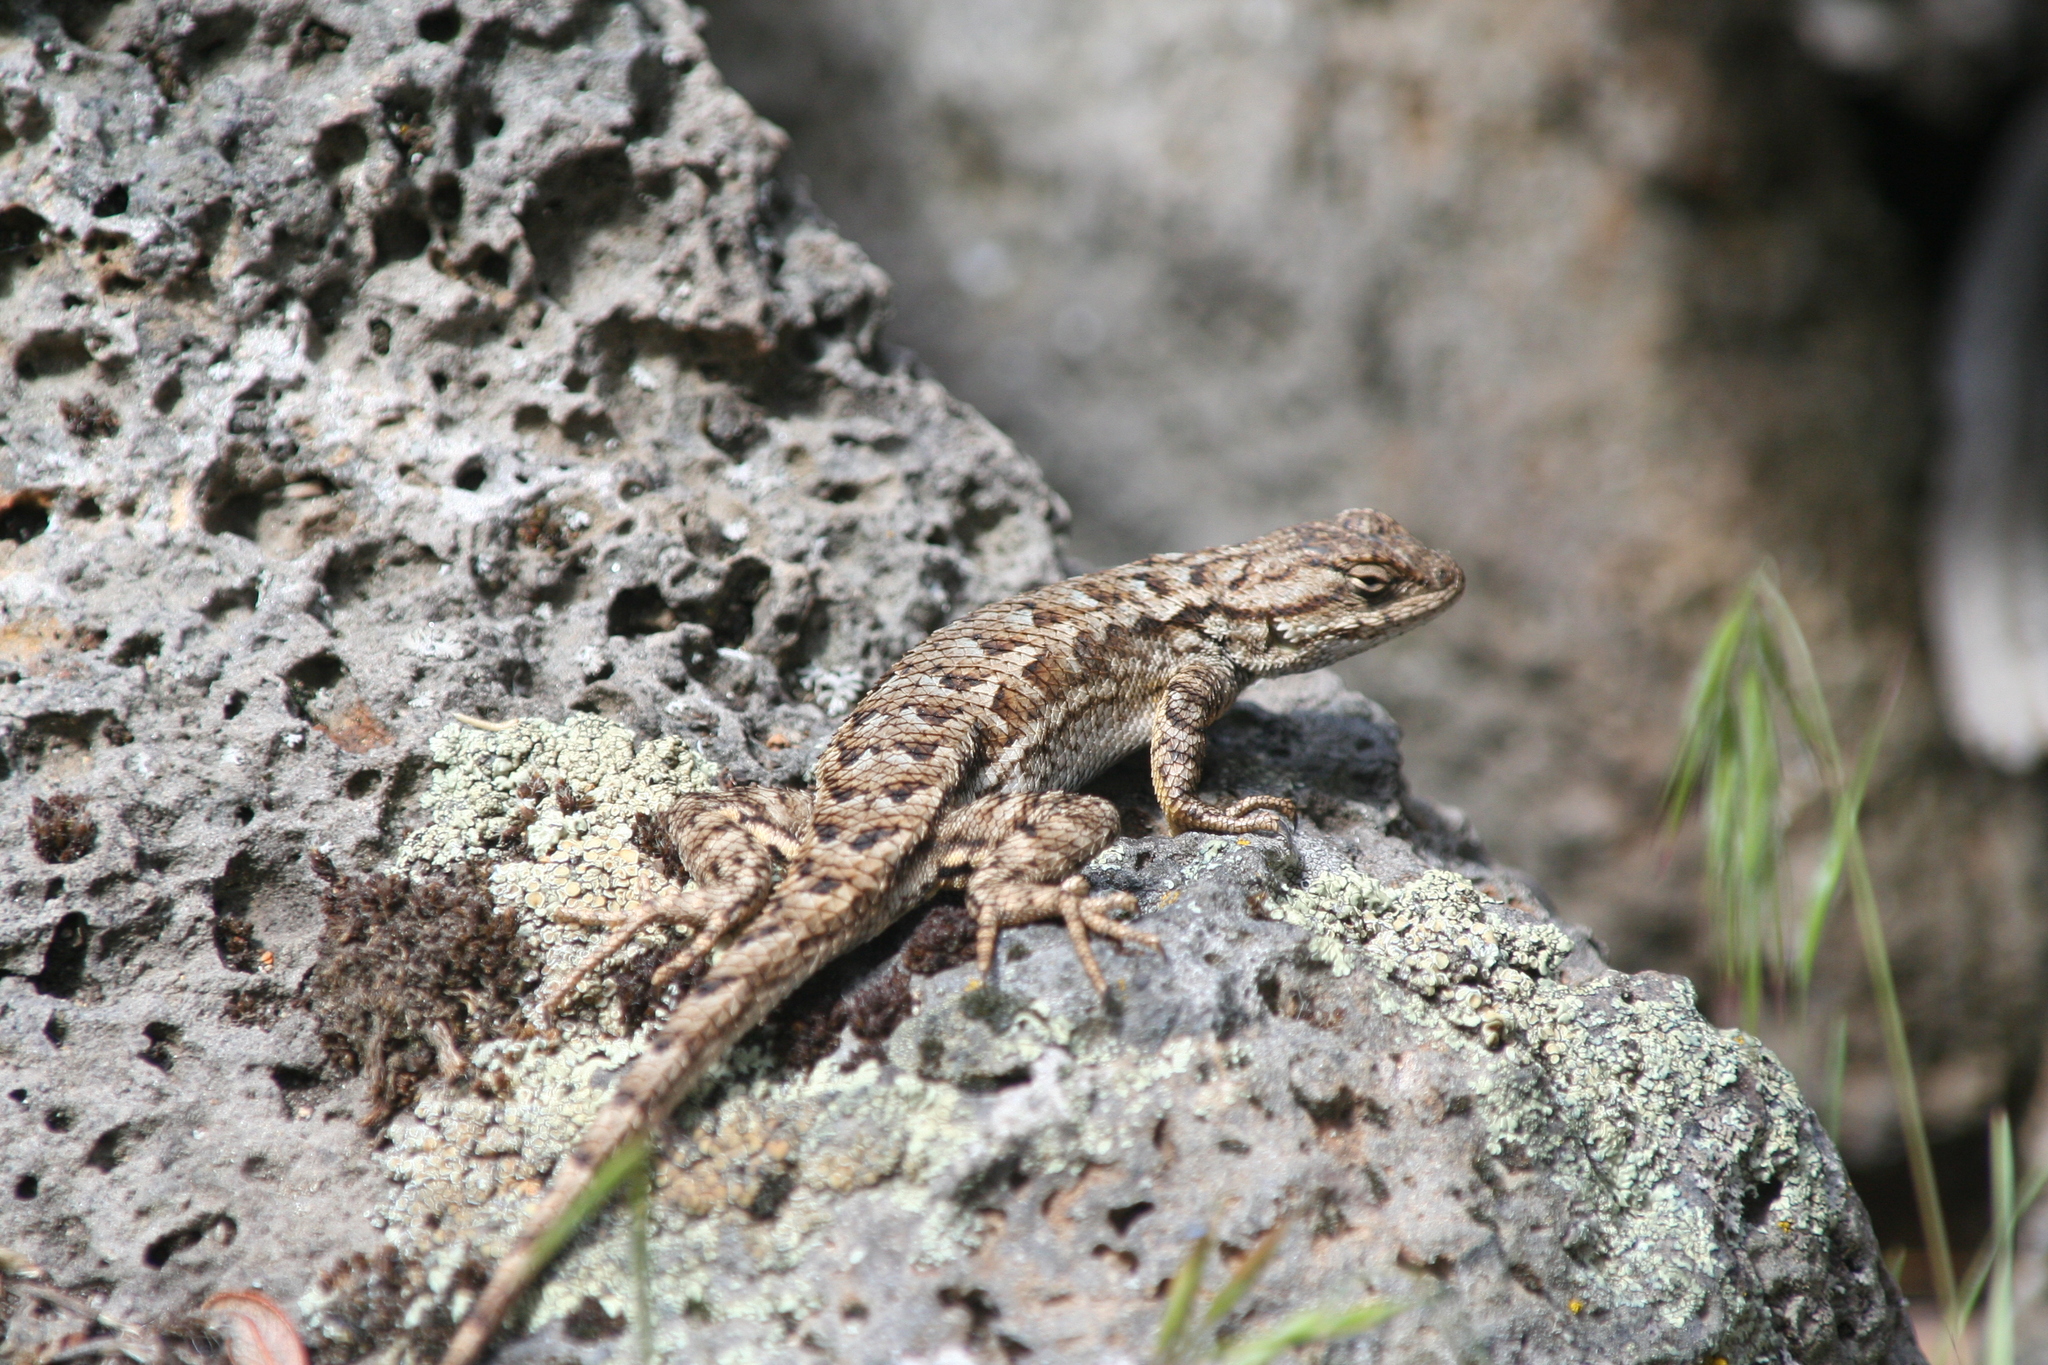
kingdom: Animalia
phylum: Chordata
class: Squamata
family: Phrynosomatidae
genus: Sceloporus
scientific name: Sceloporus occidentalis
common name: Western fence lizard
